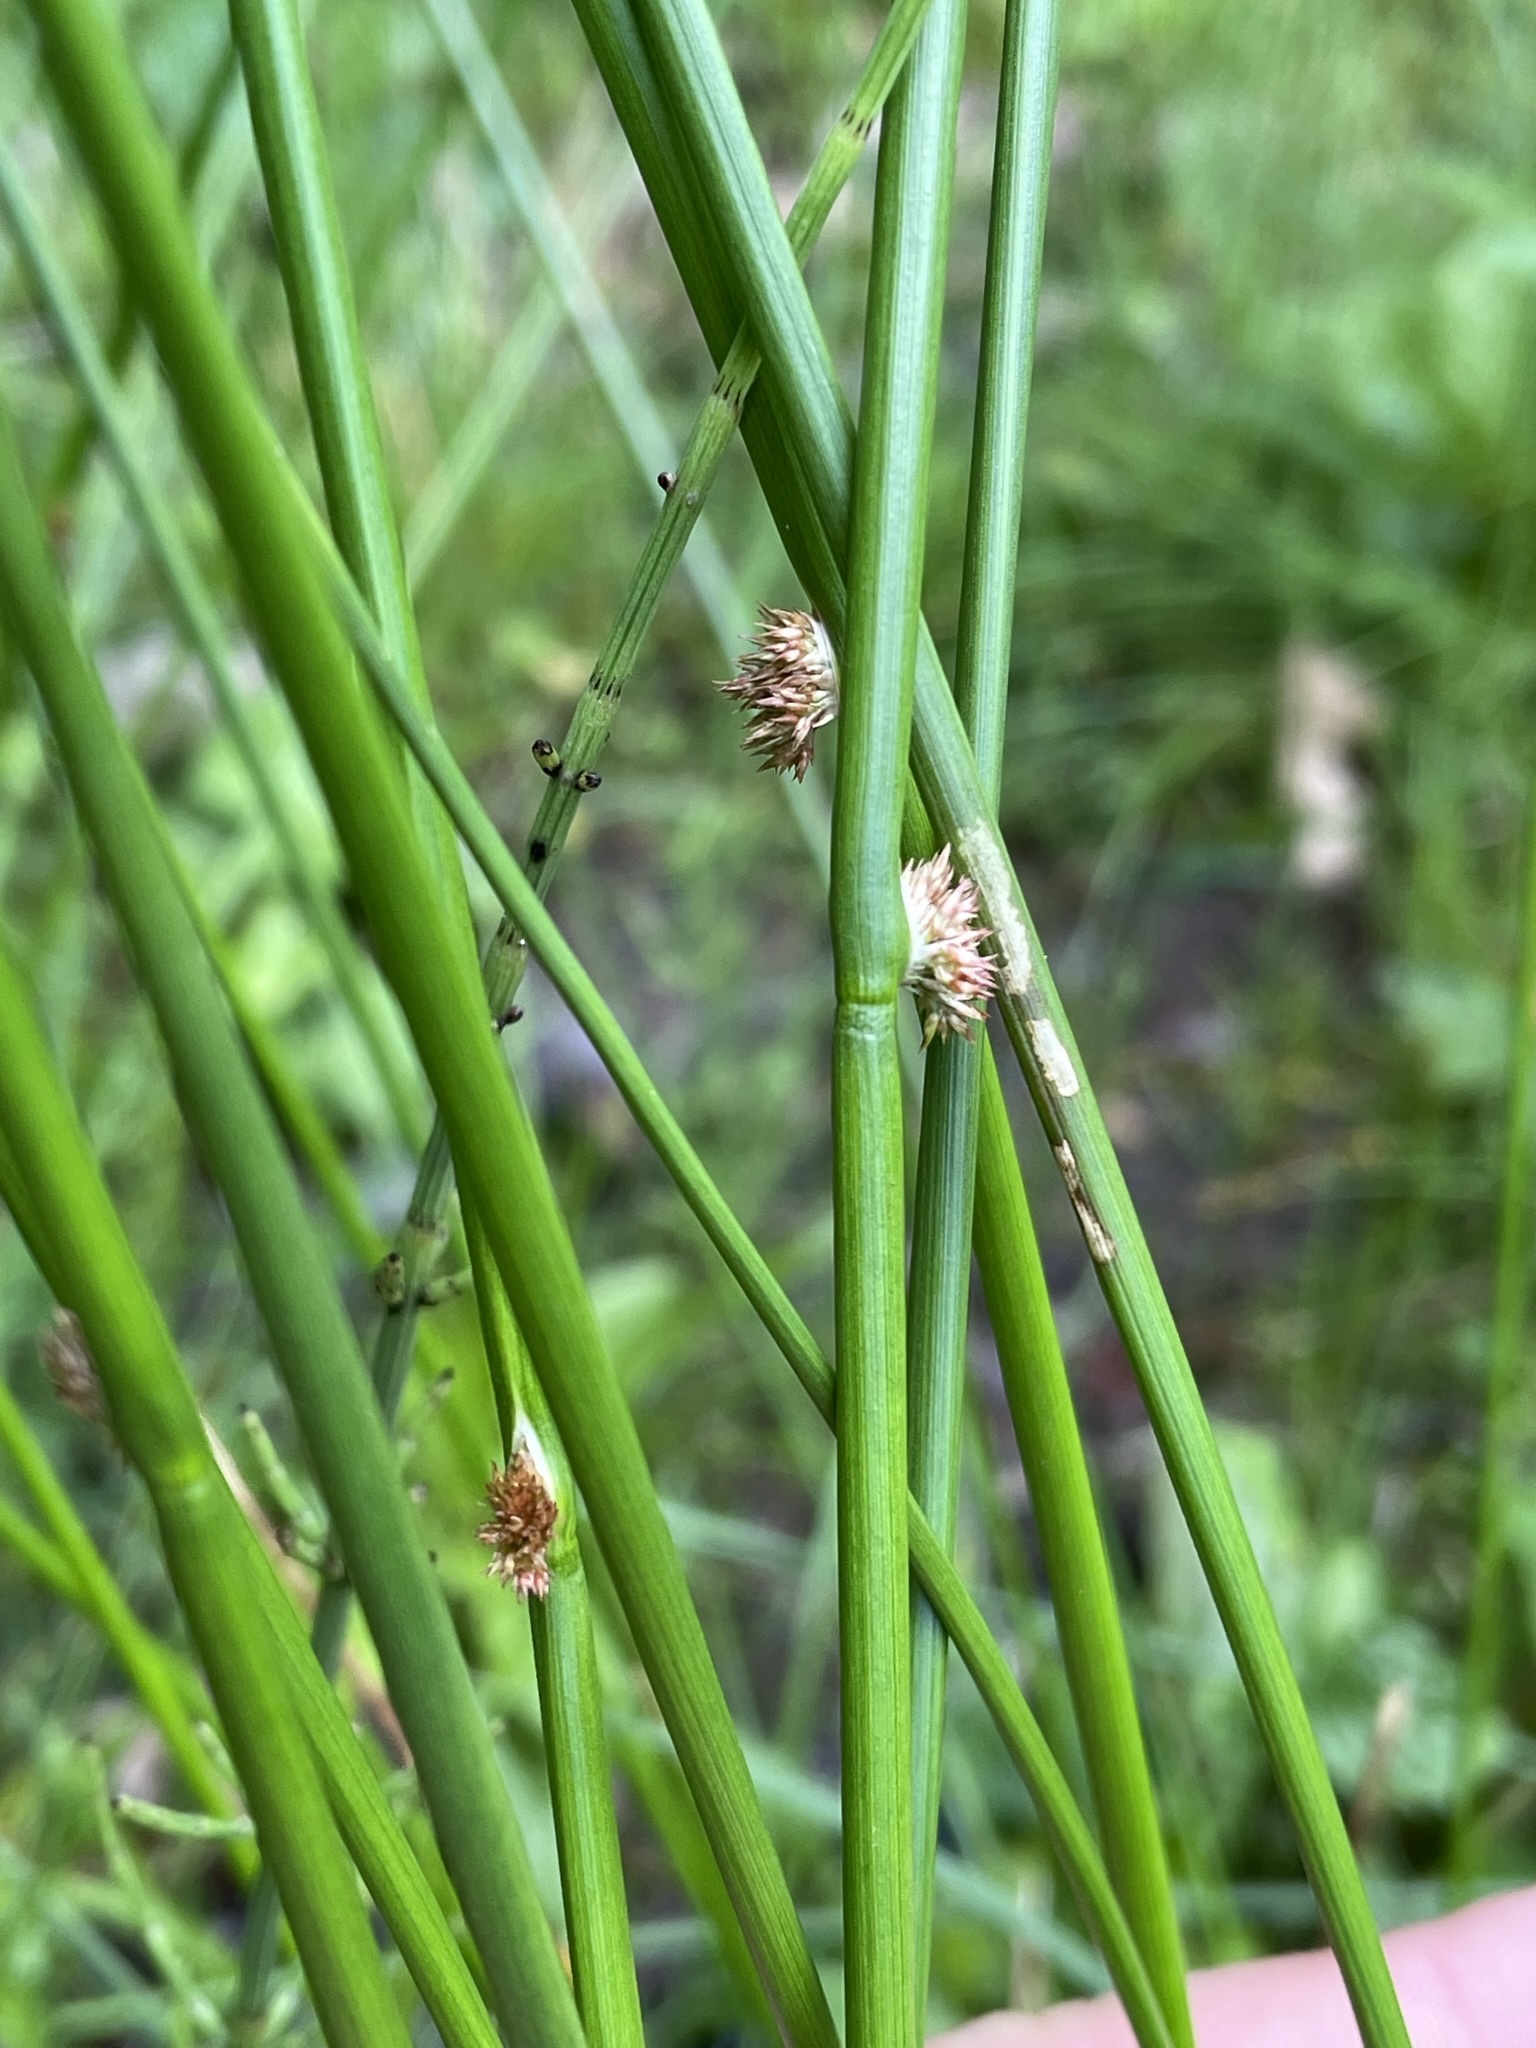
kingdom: Plantae
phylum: Tracheophyta
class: Liliopsida
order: Poales
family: Juncaceae
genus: Juncus
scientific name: Juncus effusus
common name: Soft rush
